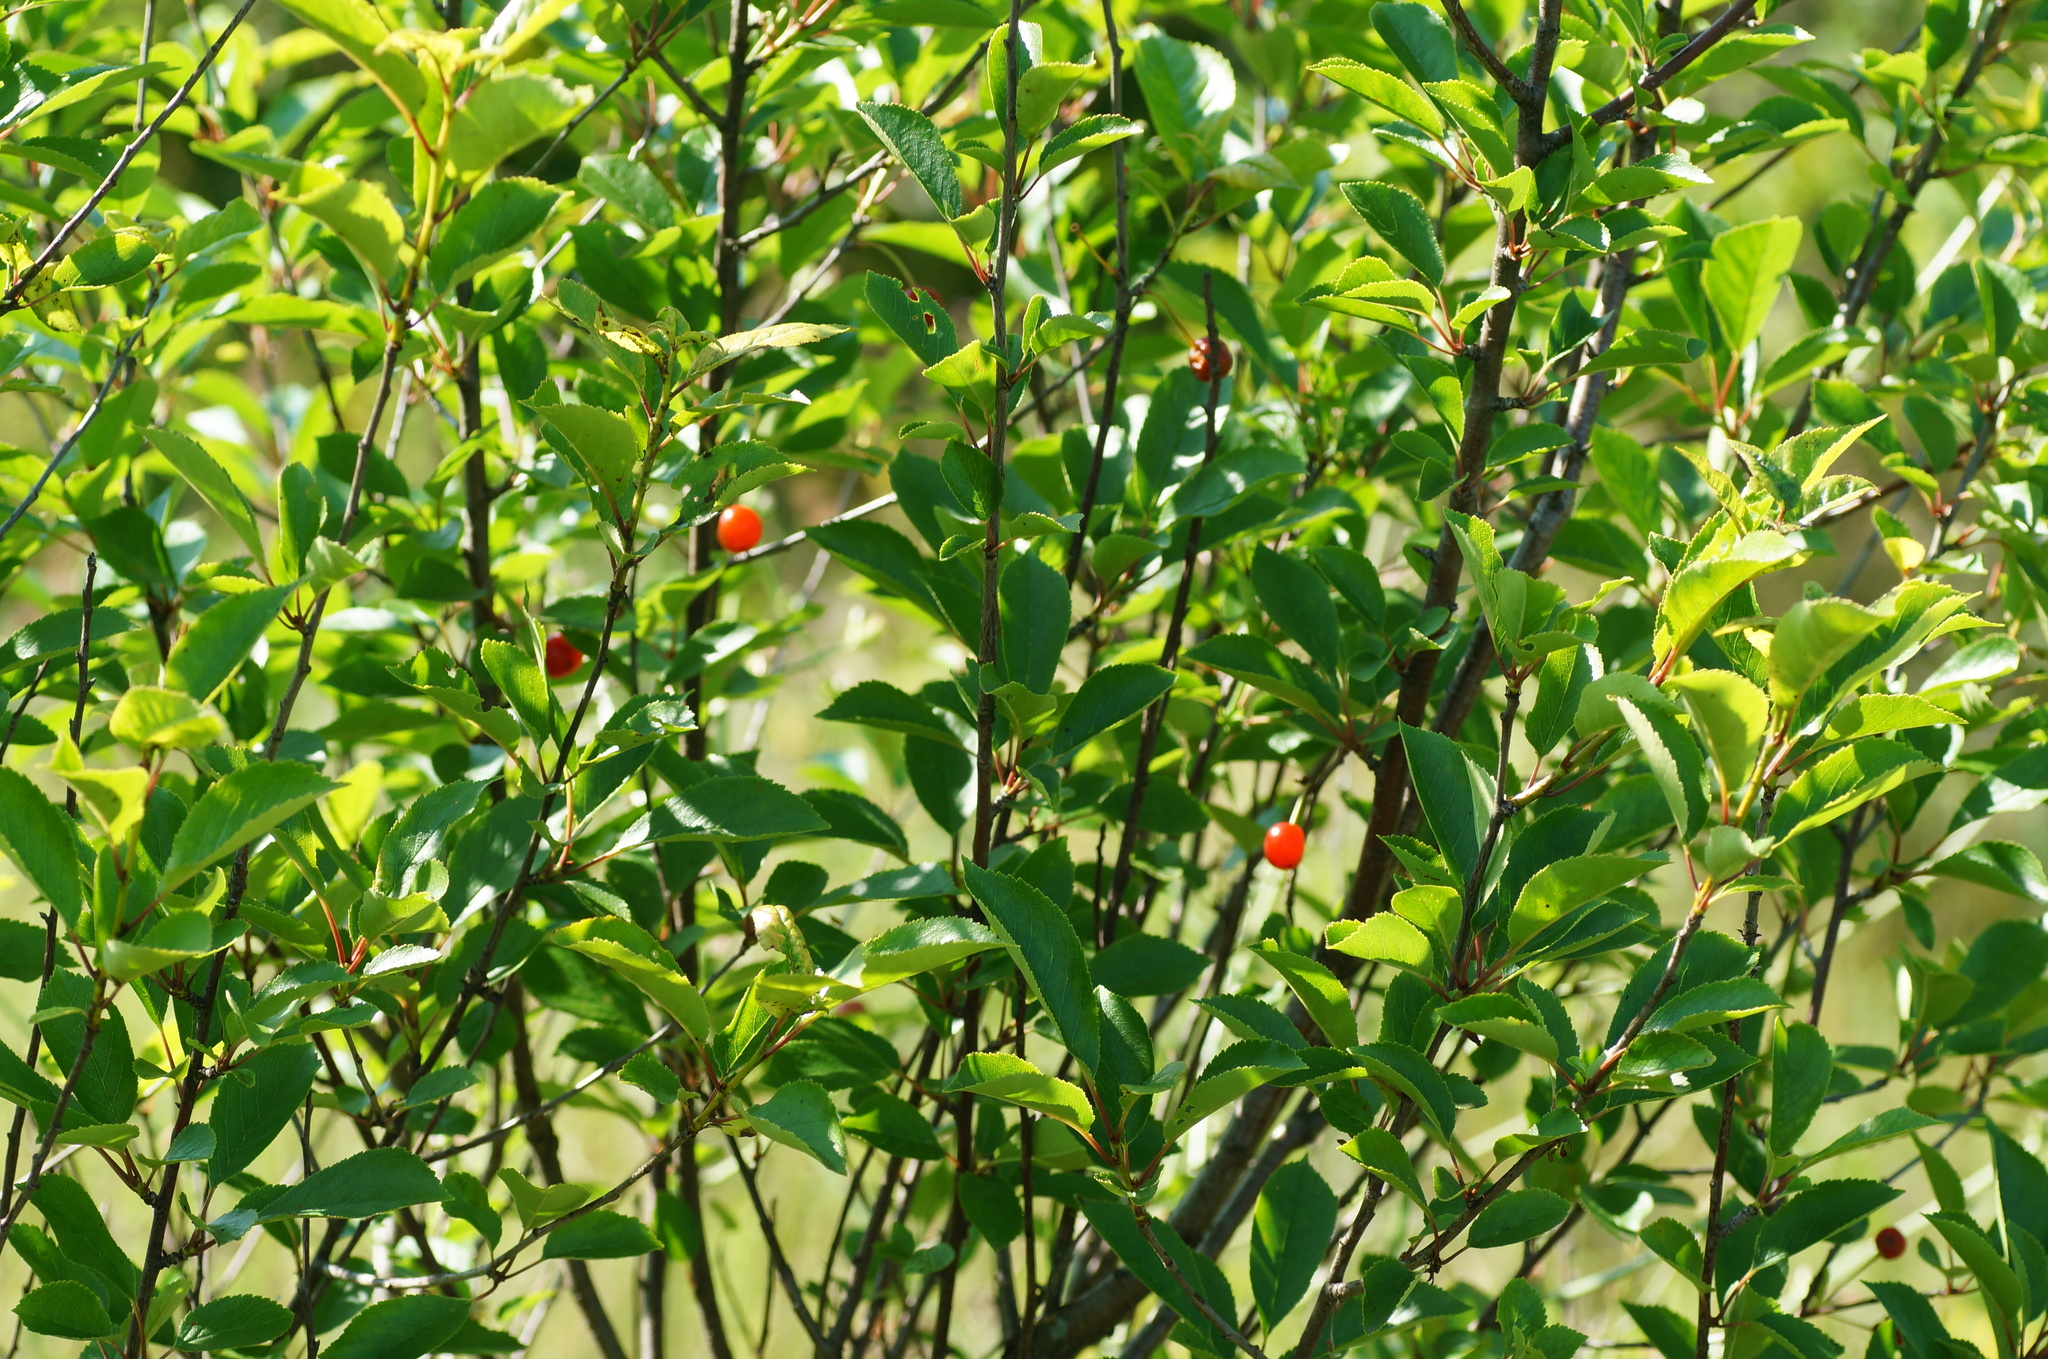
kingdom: Plantae
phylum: Tracheophyta
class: Magnoliopsida
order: Rosales
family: Rosaceae
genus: Prunus
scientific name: Prunus cerasus
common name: Morello cherry
